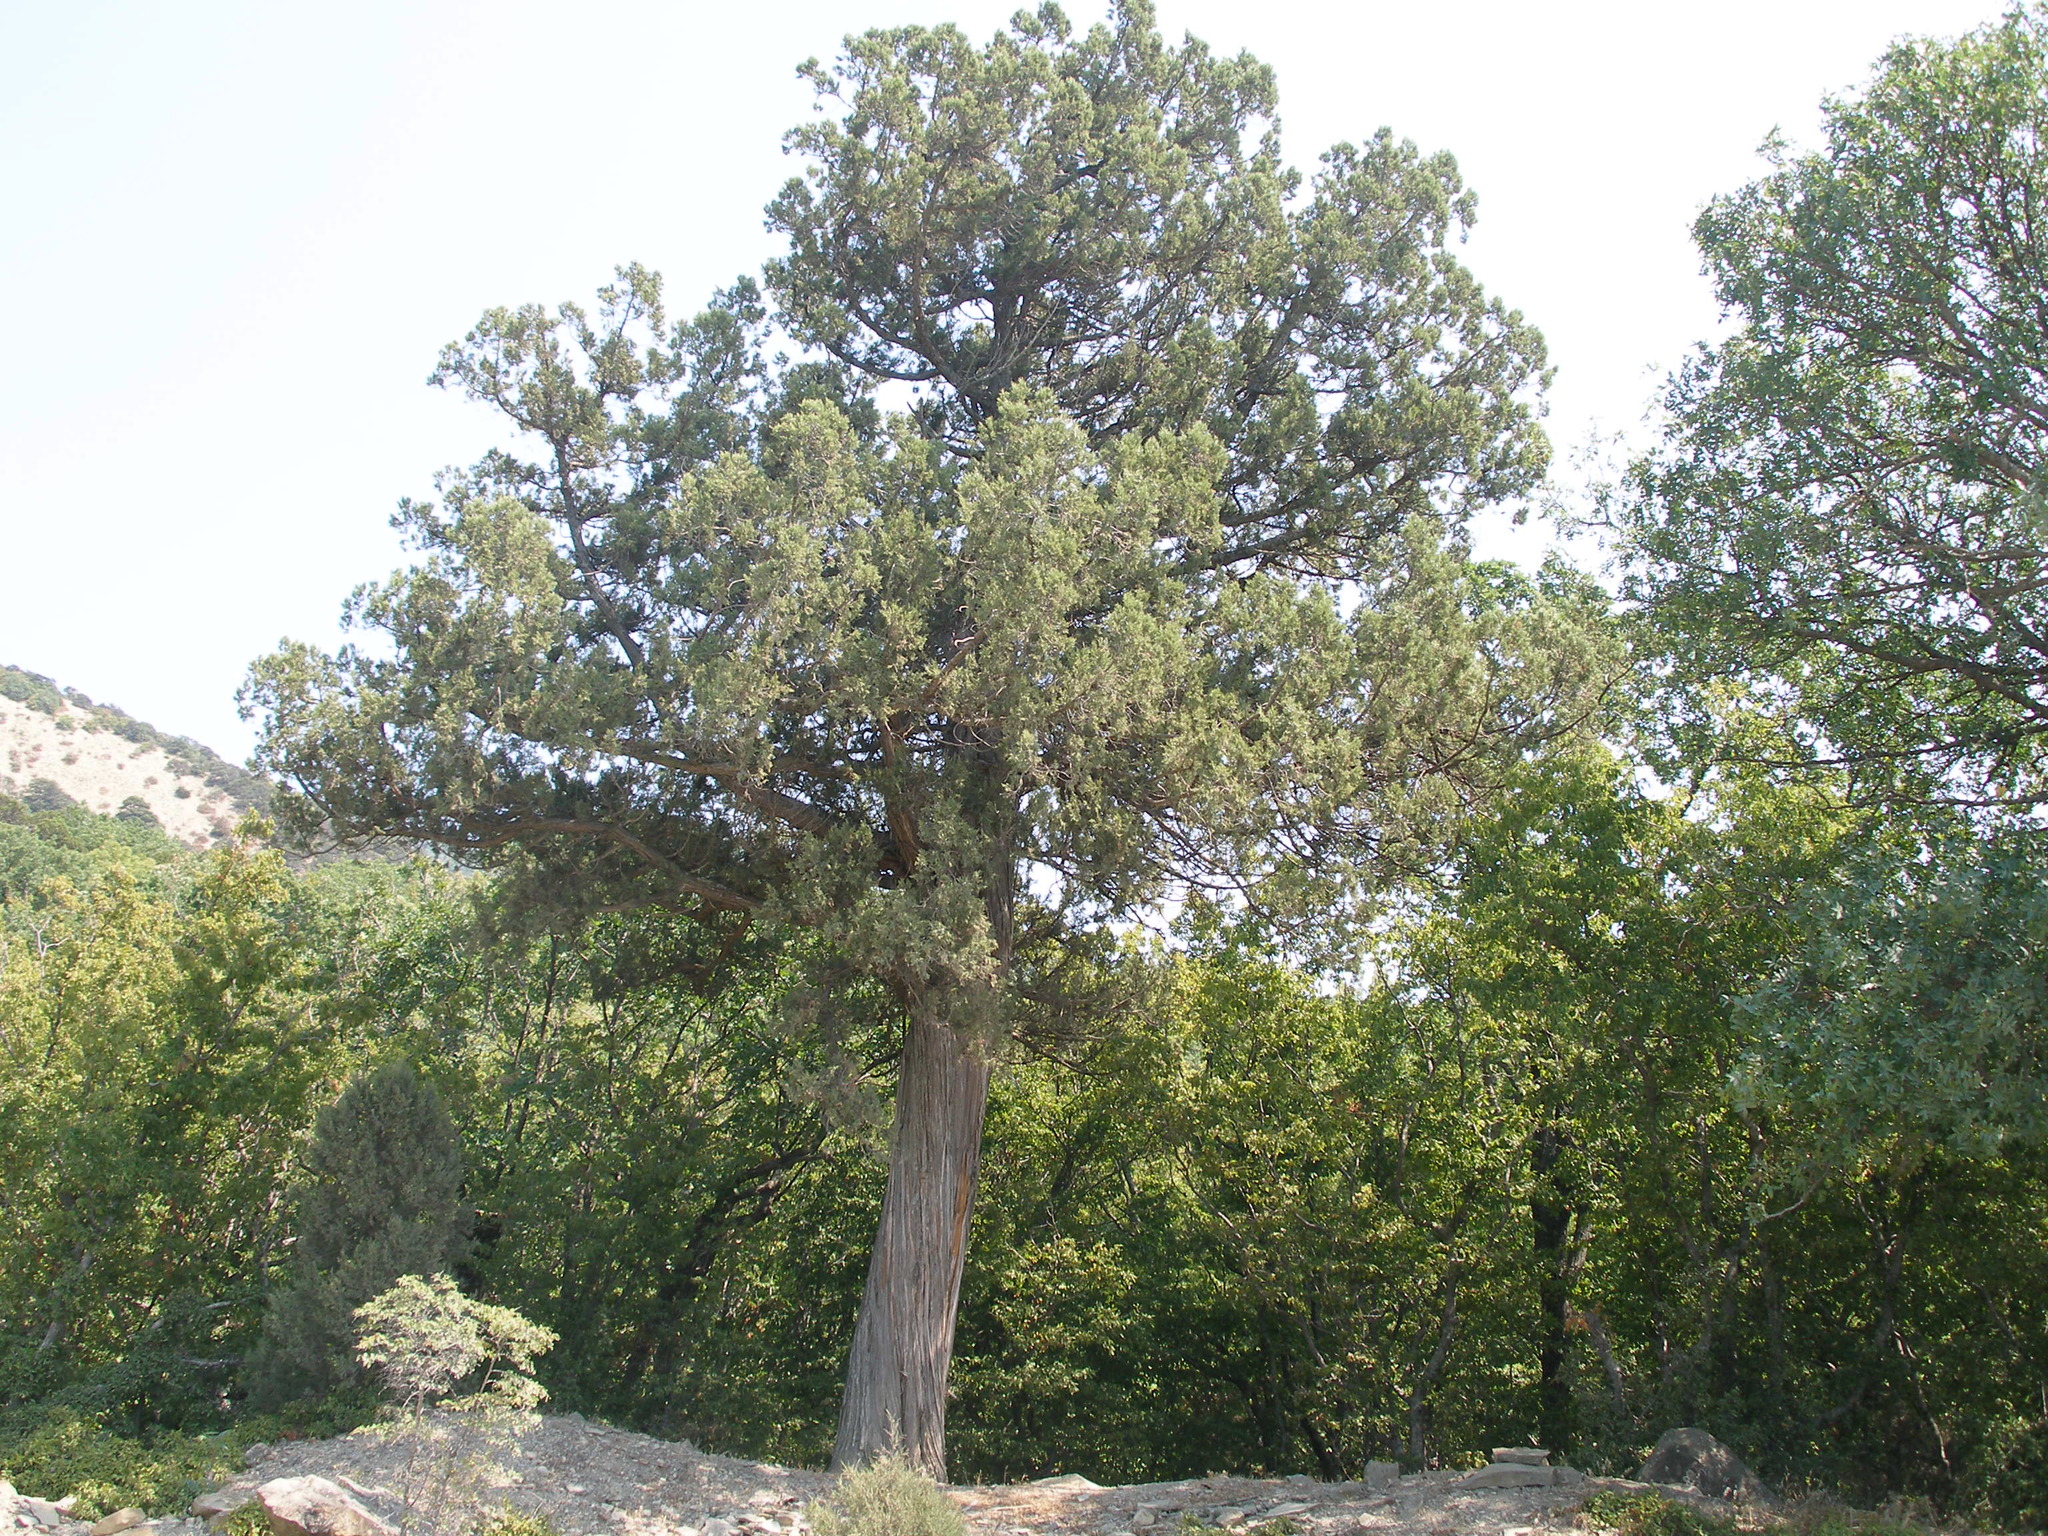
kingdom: Plantae
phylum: Tracheophyta
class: Pinopsida
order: Pinales
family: Cupressaceae
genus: Juniperus
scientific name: Juniperus excelsa
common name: Crimean juniper
